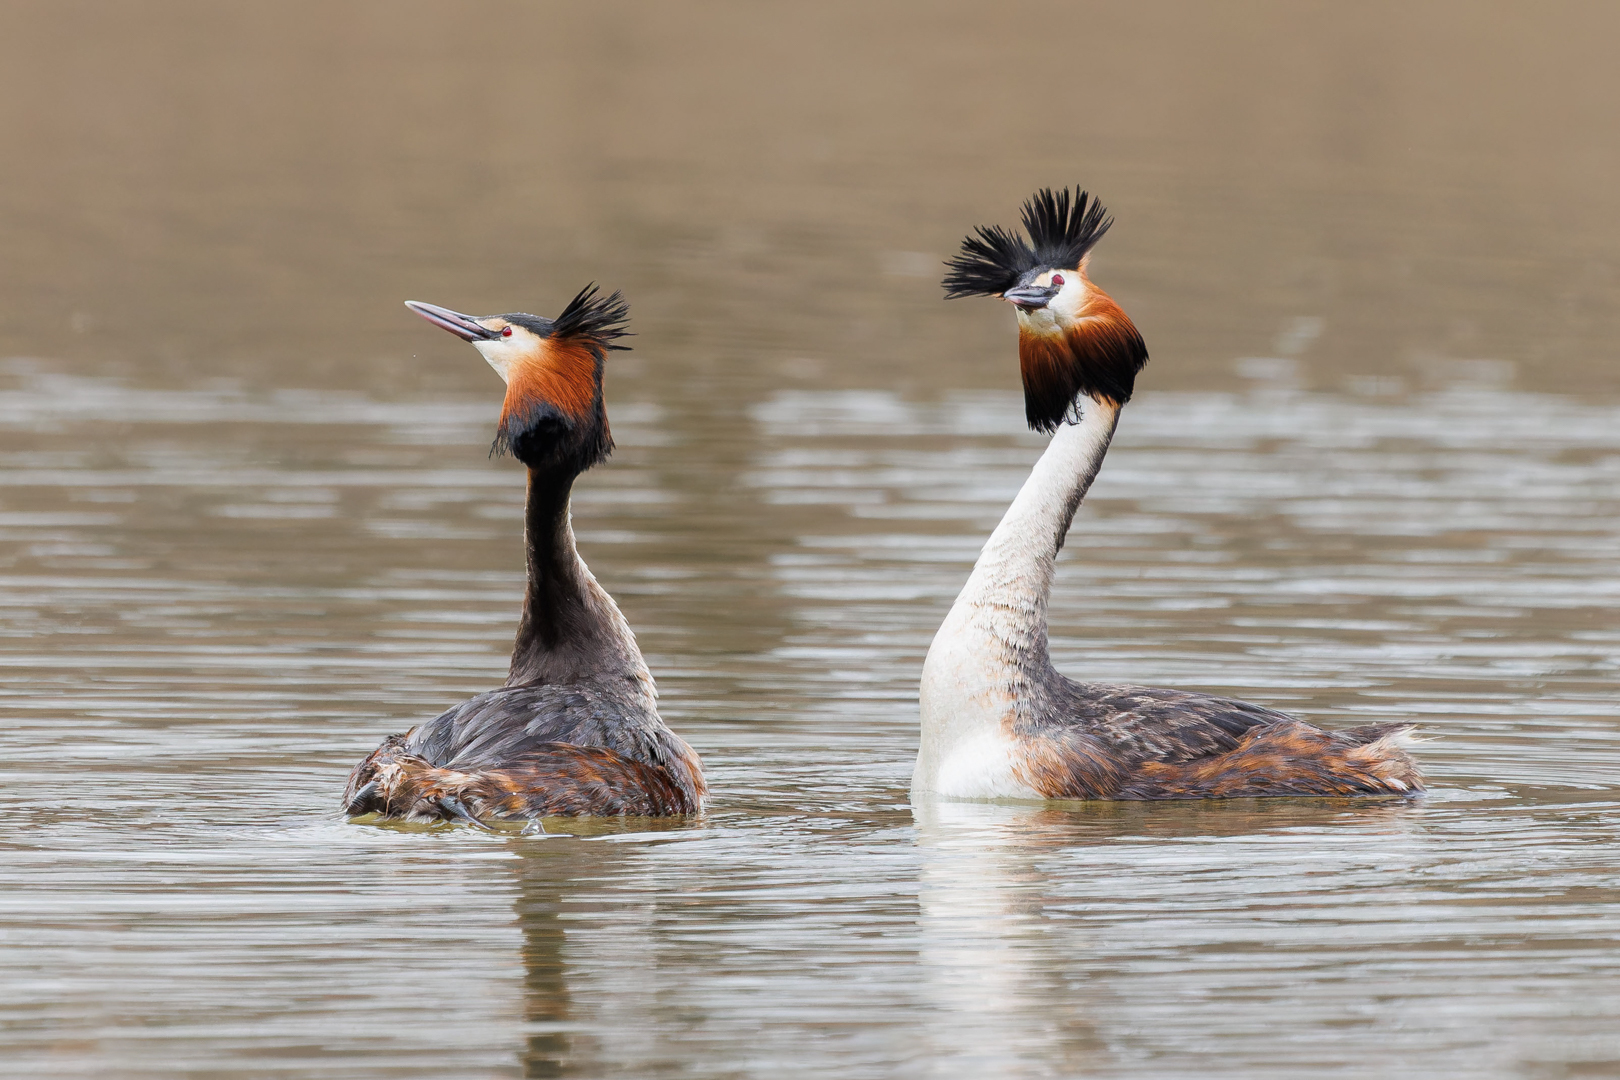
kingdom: Animalia
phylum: Chordata
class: Aves
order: Podicipediformes
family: Podicipedidae
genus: Podiceps
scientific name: Podiceps cristatus
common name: Great crested grebe
